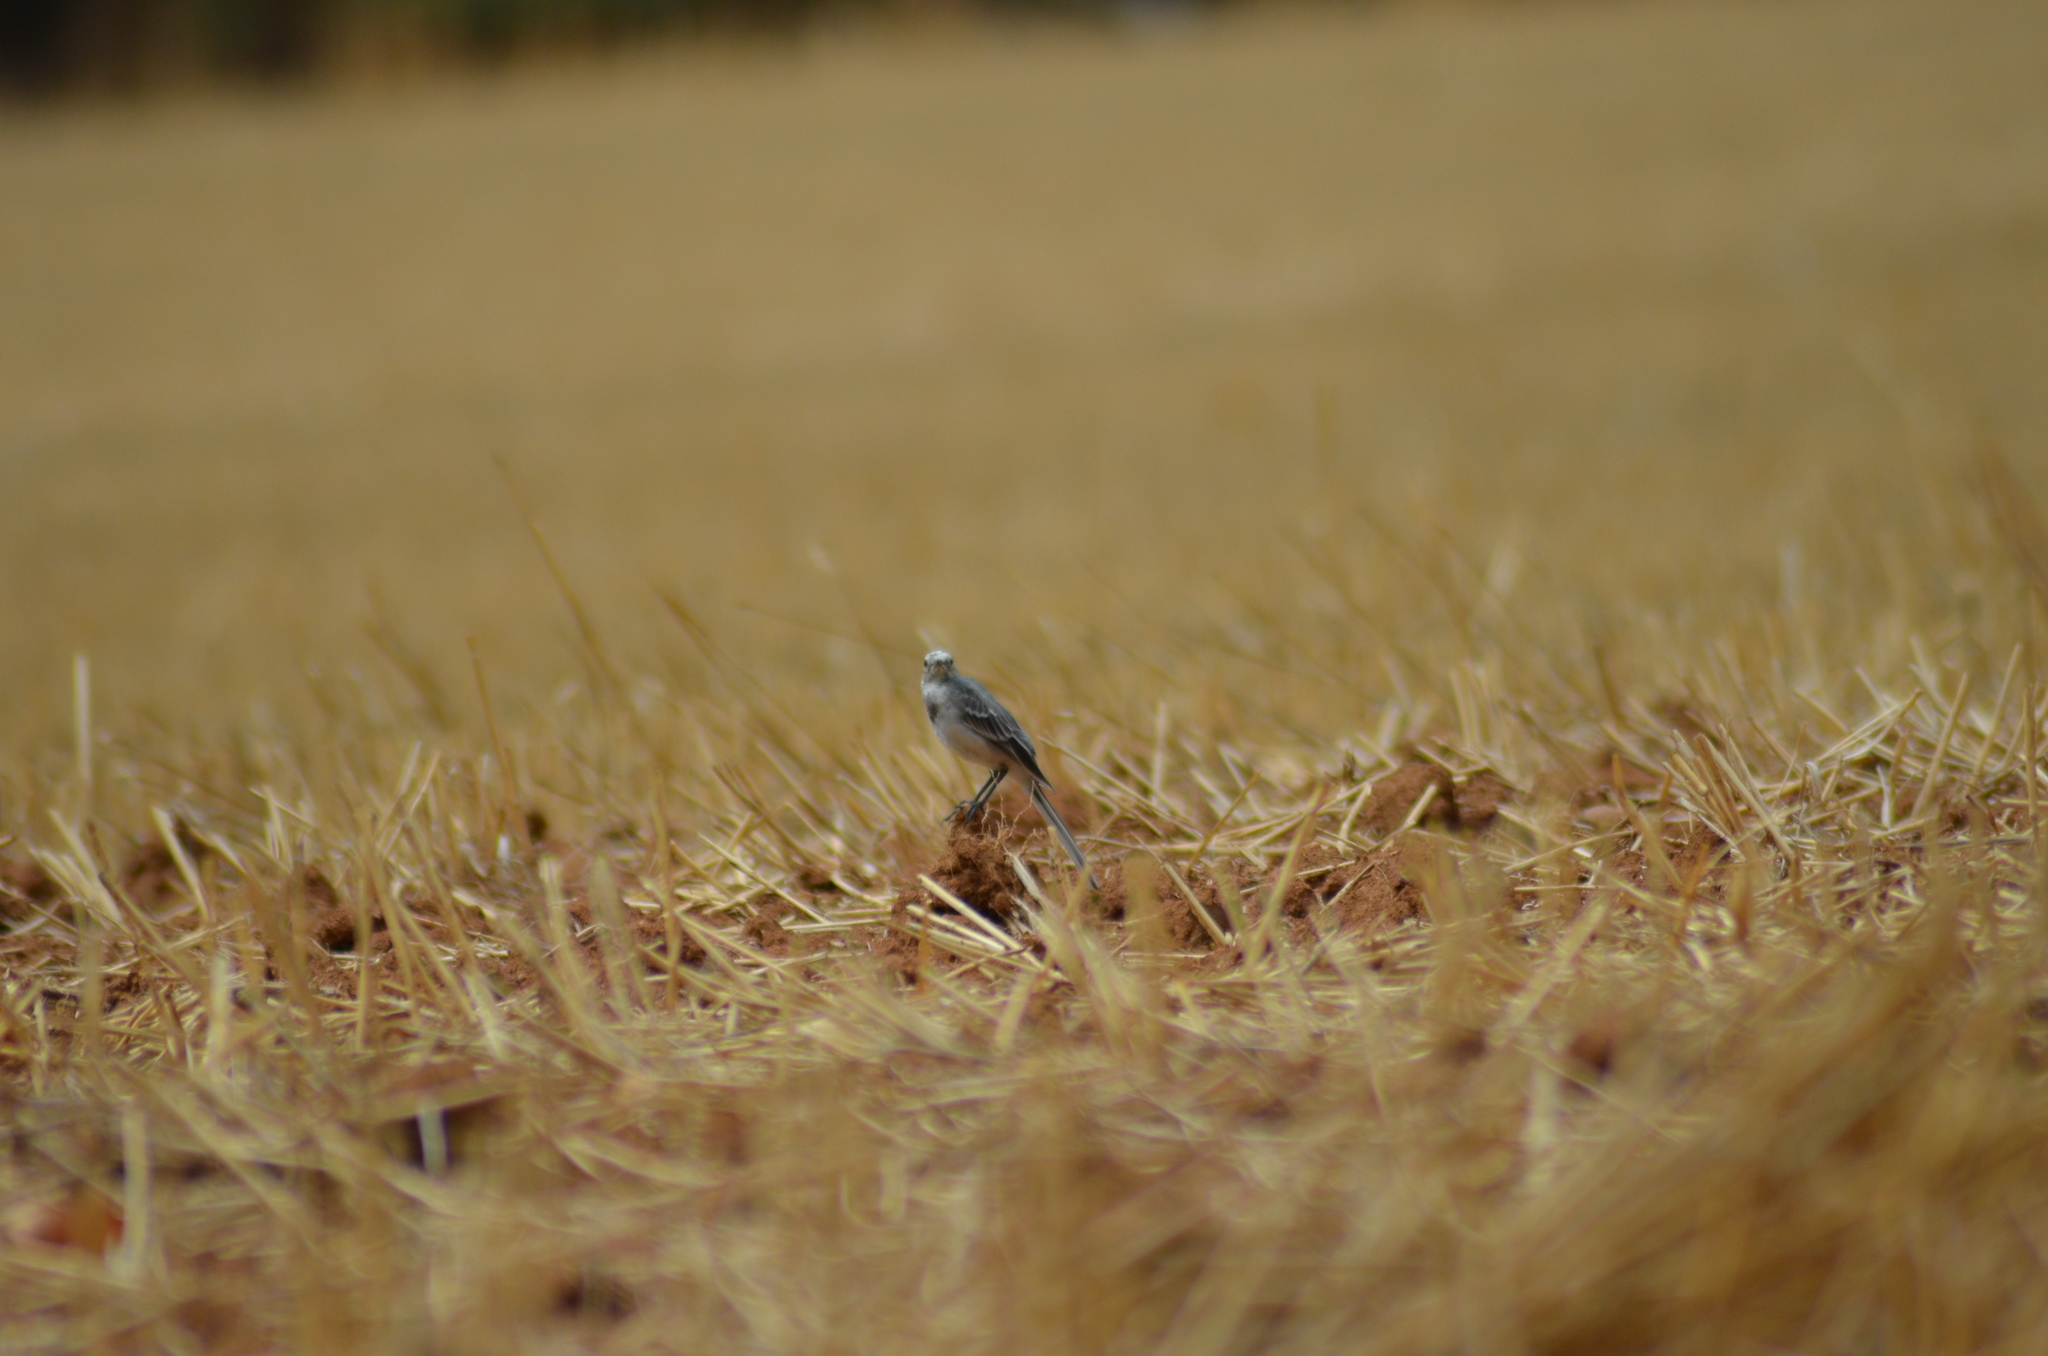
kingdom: Animalia
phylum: Chordata
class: Aves
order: Passeriformes
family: Motacillidae
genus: Motacilla
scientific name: Motacilla alba
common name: White wagtail
